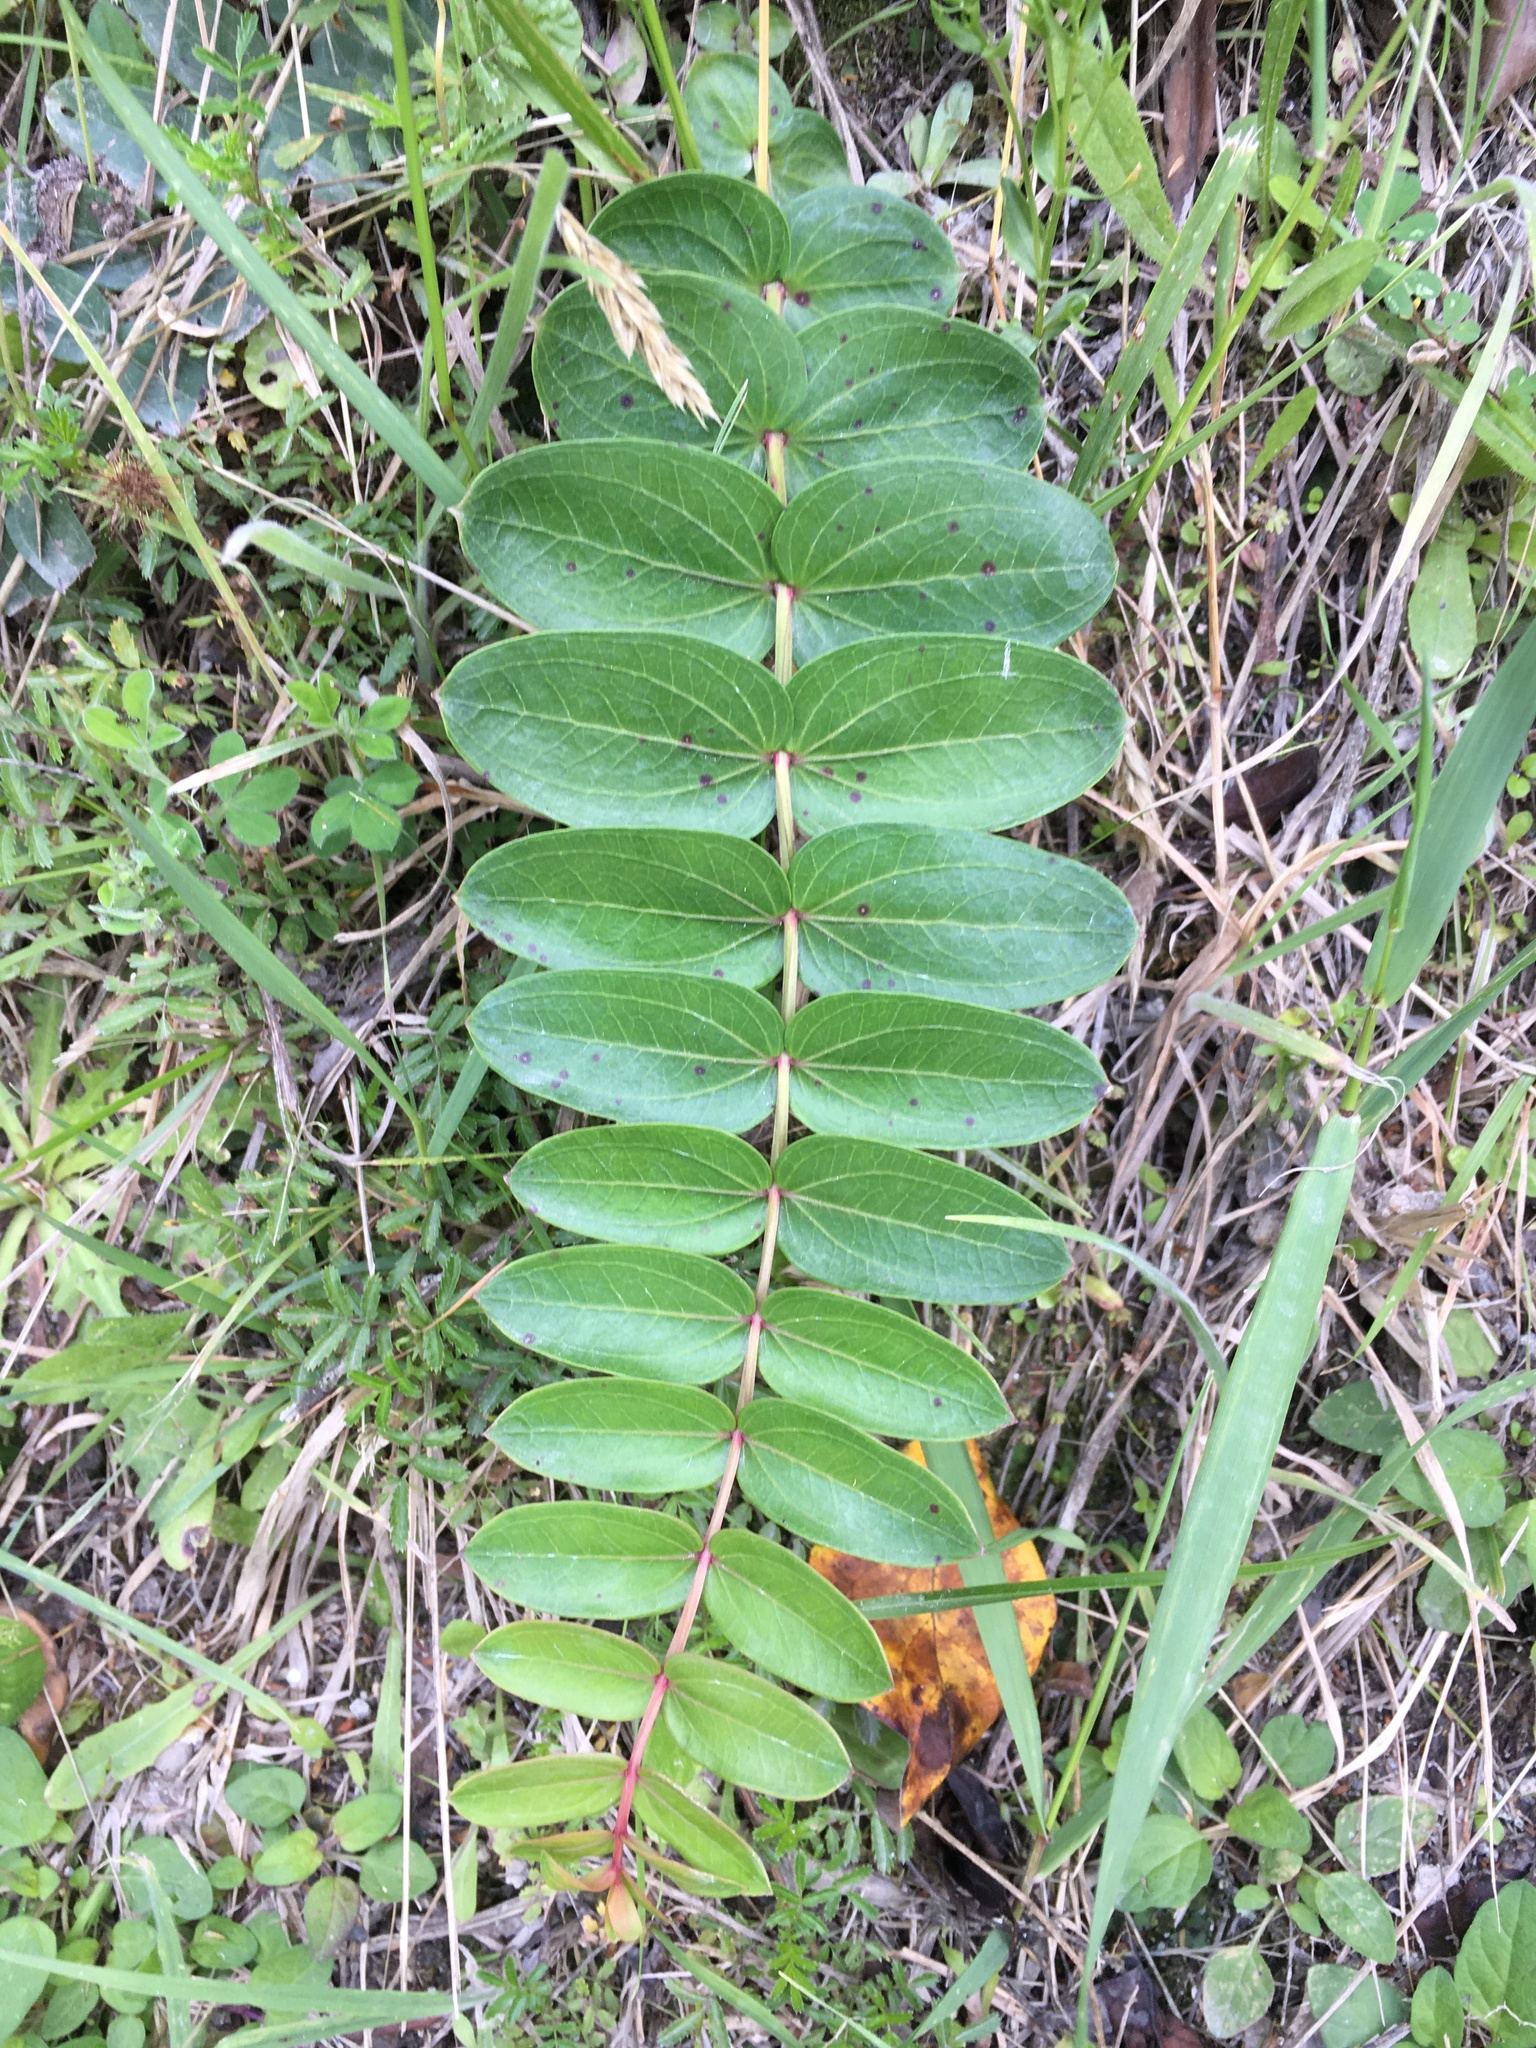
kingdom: Plantae
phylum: Tracheophyta
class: Magnoliopsida
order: Cucurbitales
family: Coriariaceae
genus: Coriaria
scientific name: Coriaria arborea
